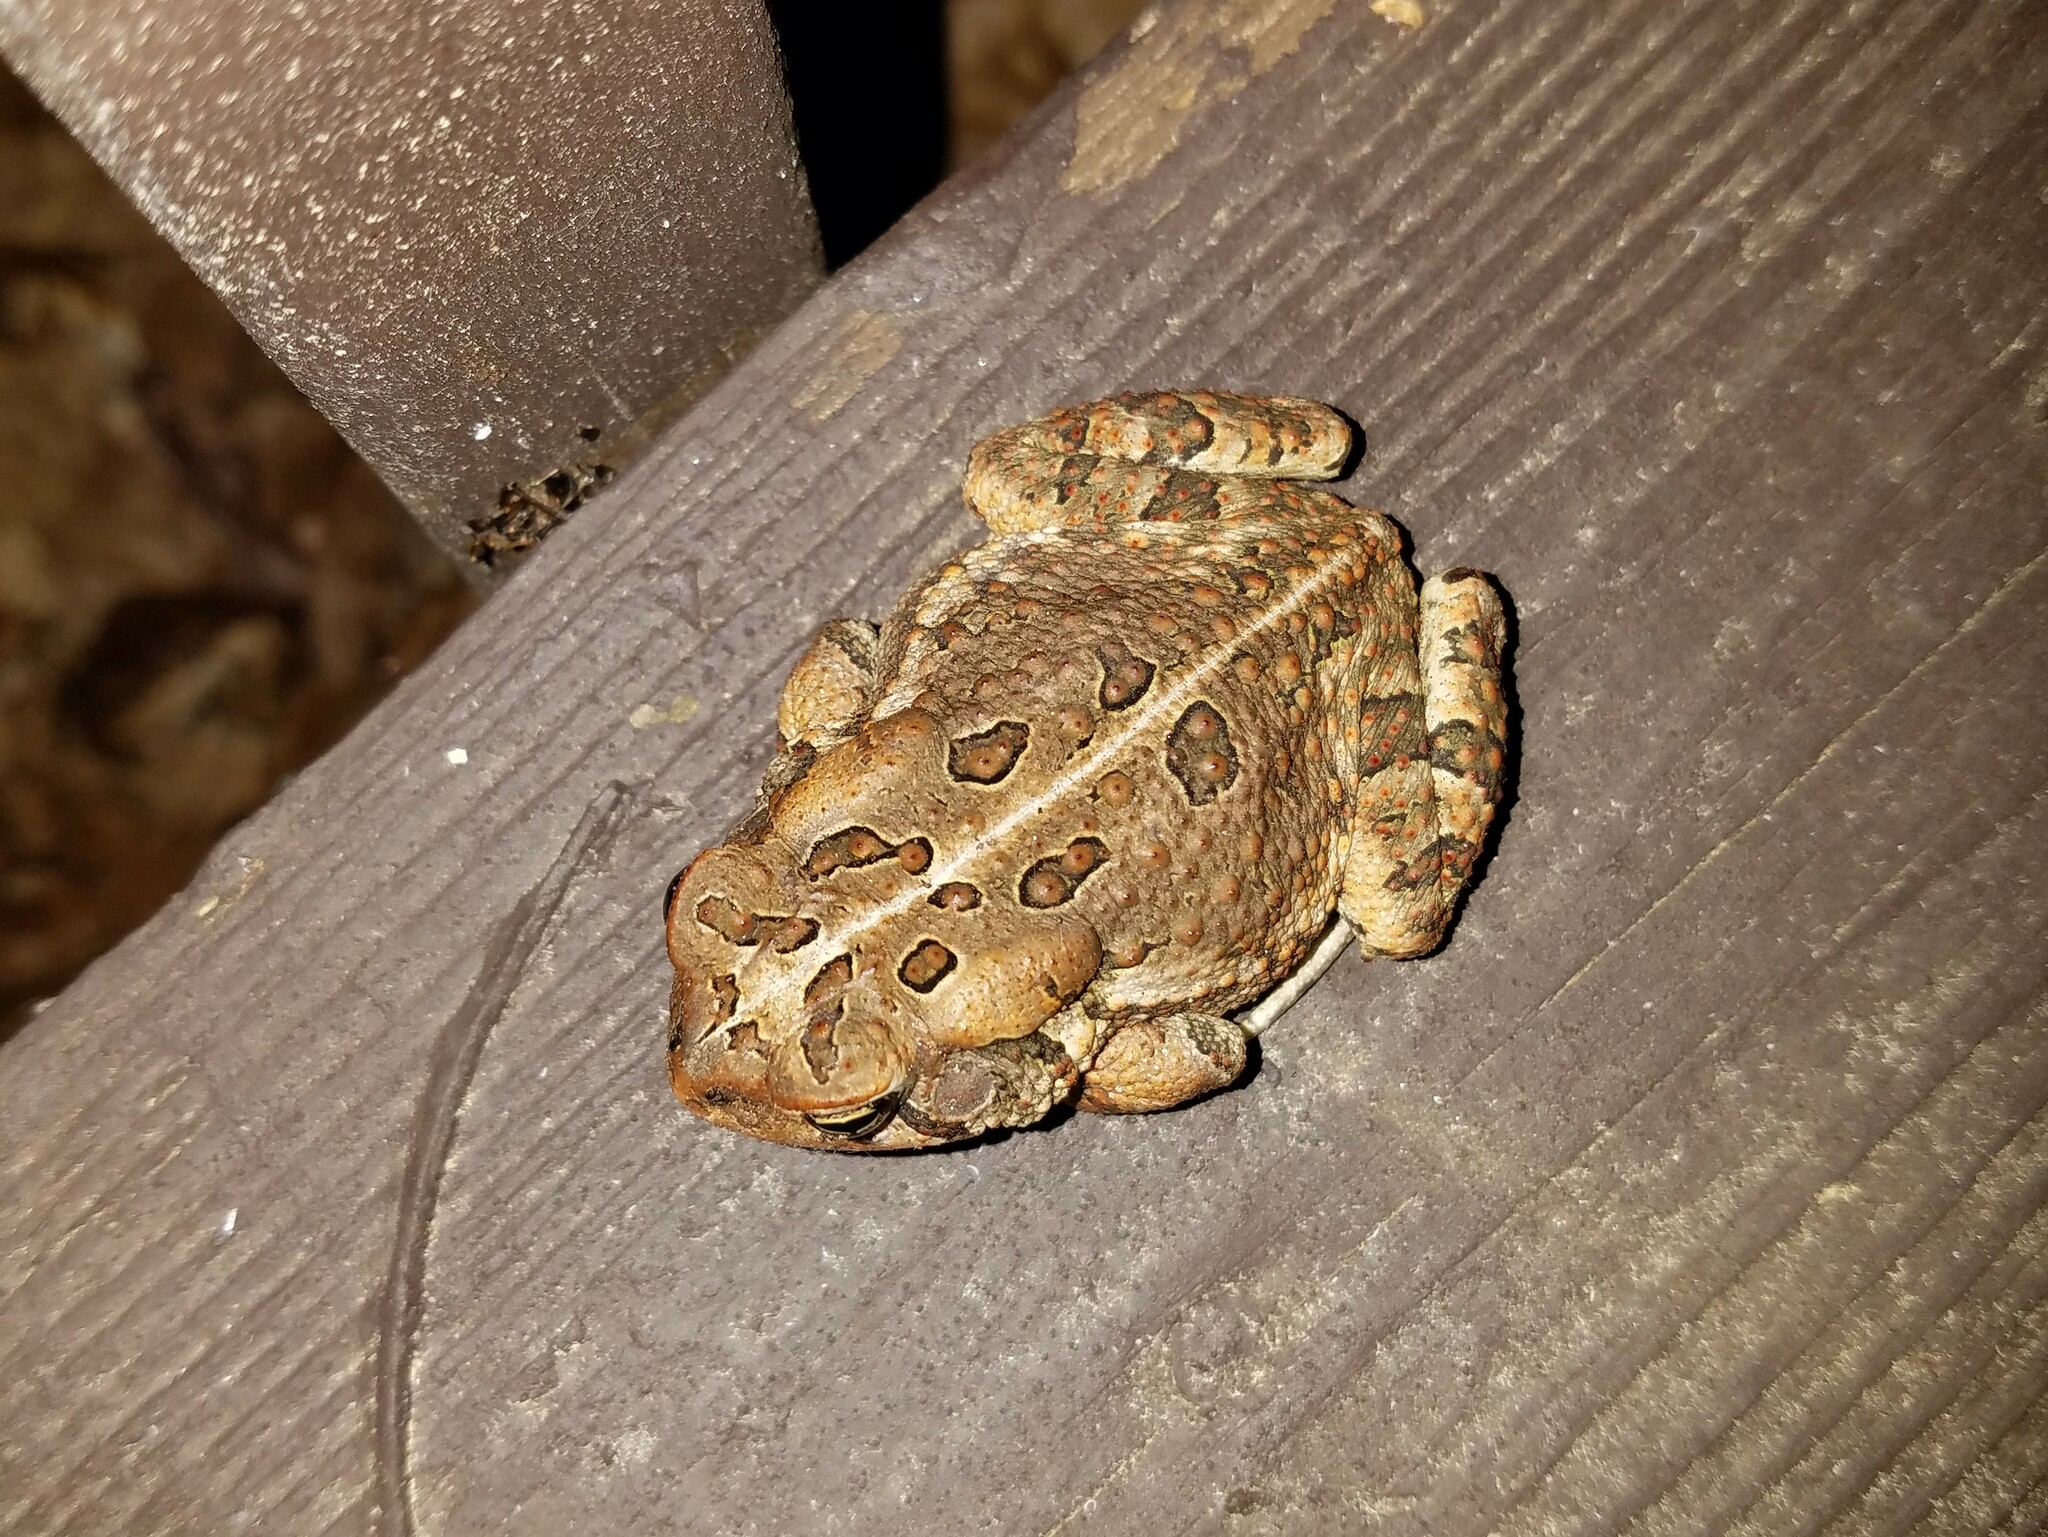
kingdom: Animalia
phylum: Chordata
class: Amphibia
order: Anura
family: Bufonidae
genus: Anaxyrus
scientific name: Anaxyrus fowleri
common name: Fowler's toad
